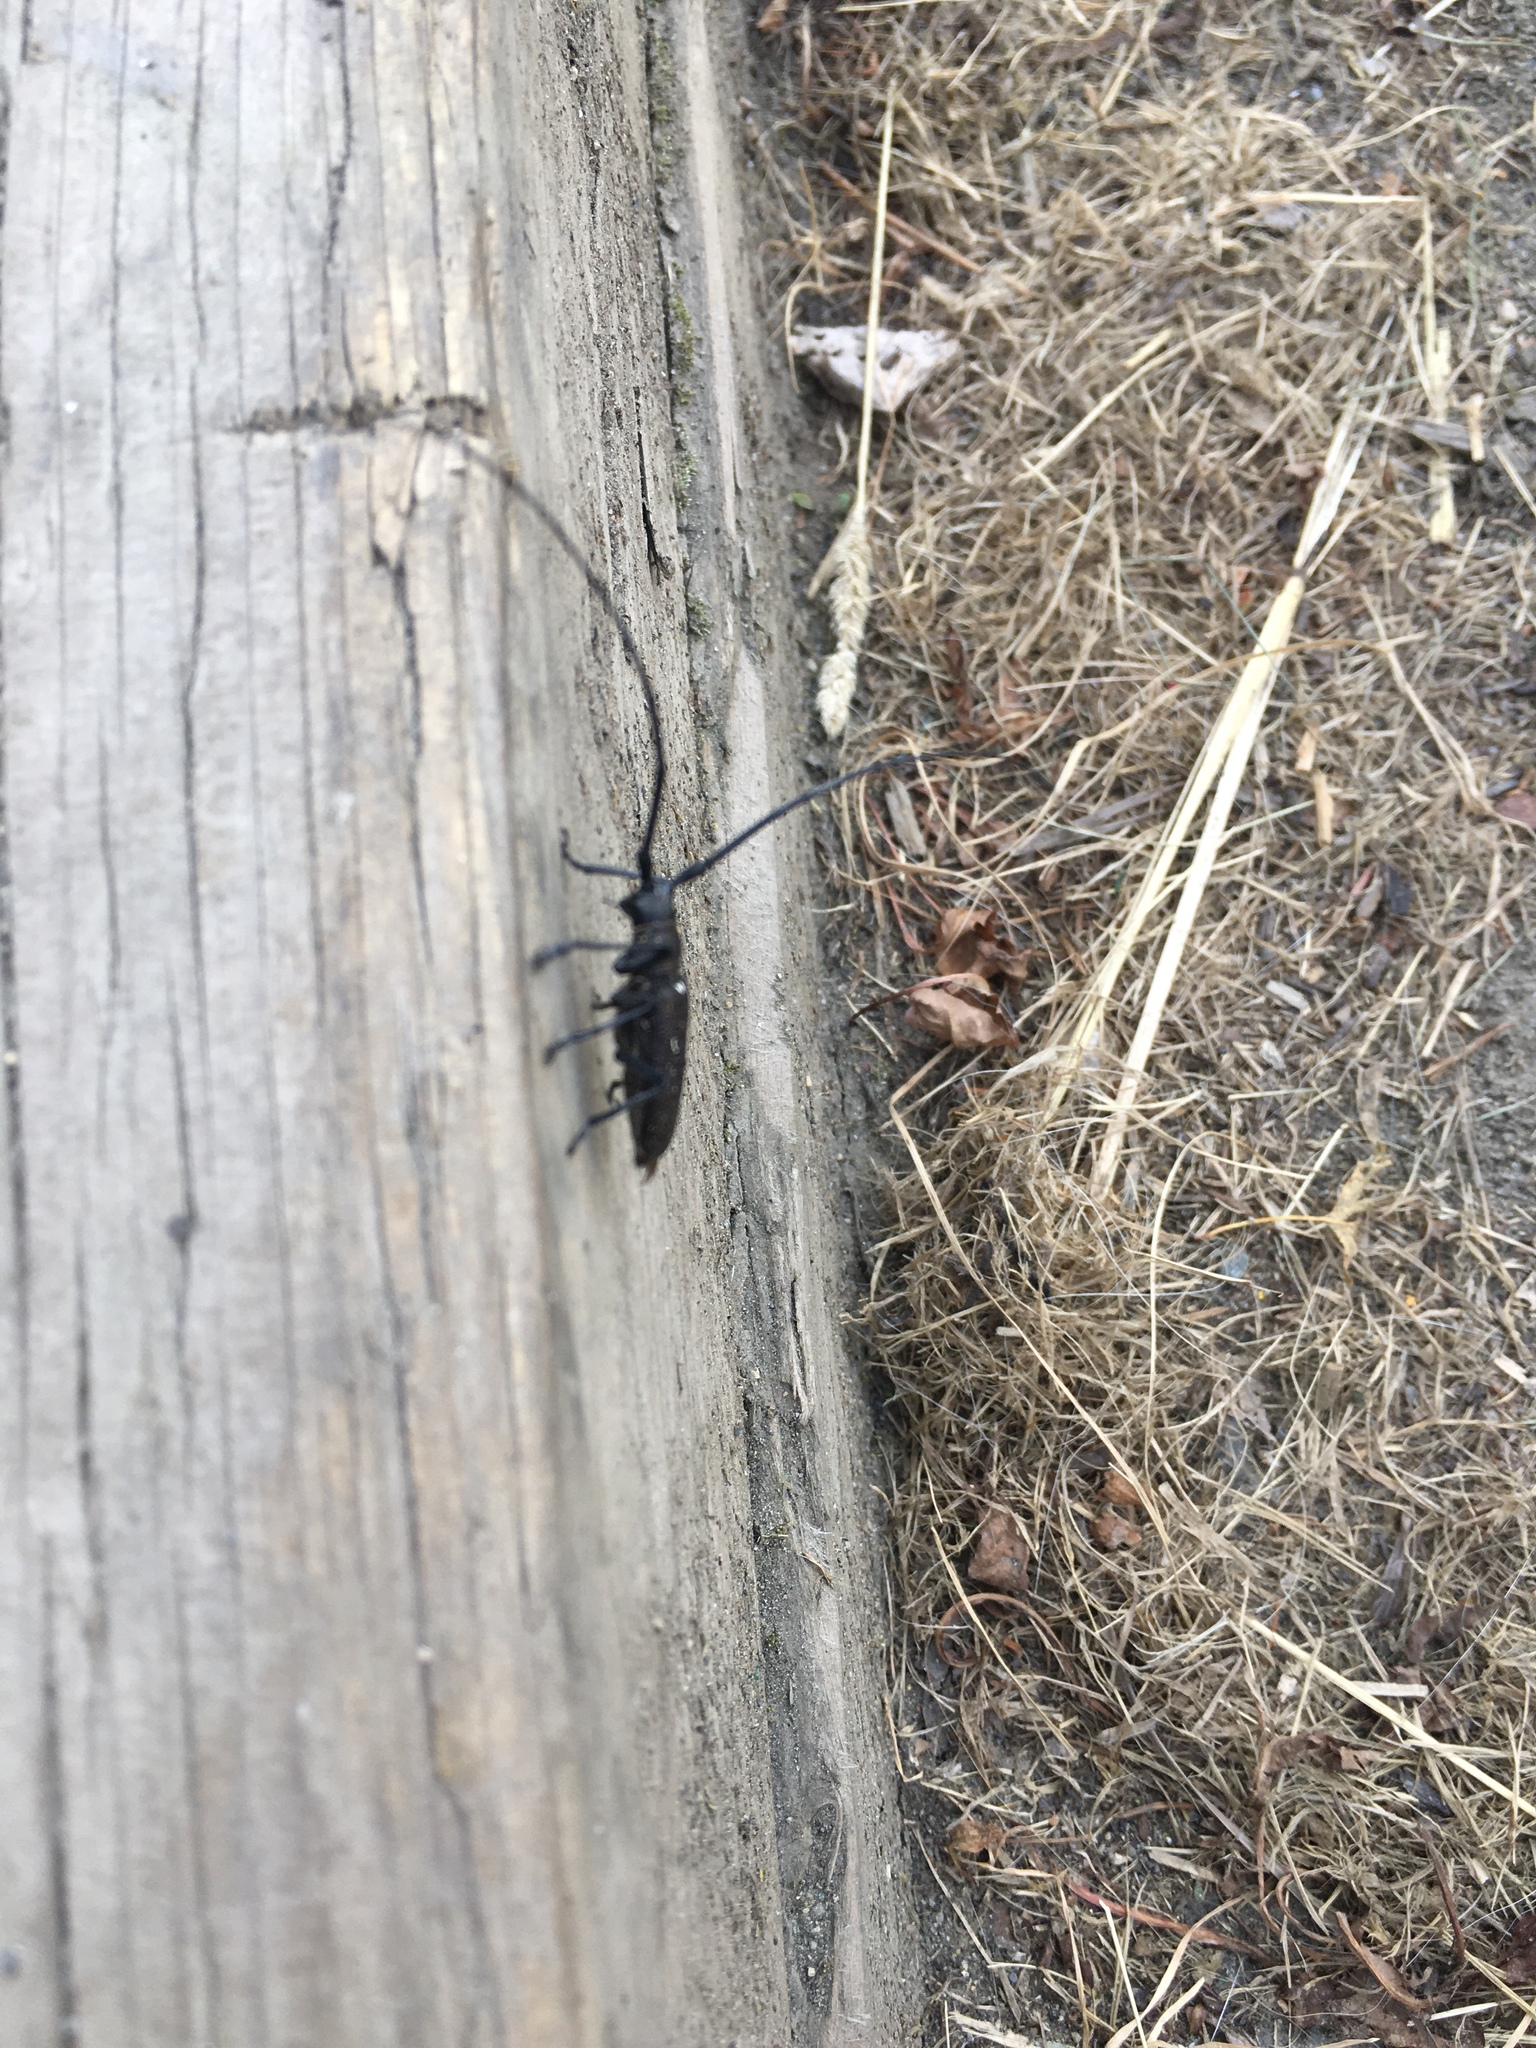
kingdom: Animalia
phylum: Arthropoda
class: Insecta
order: Coleoptera
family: Cerambycidae
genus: Monochamus
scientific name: Monochamus scutellatus
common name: White-spotted sawyer beetle
